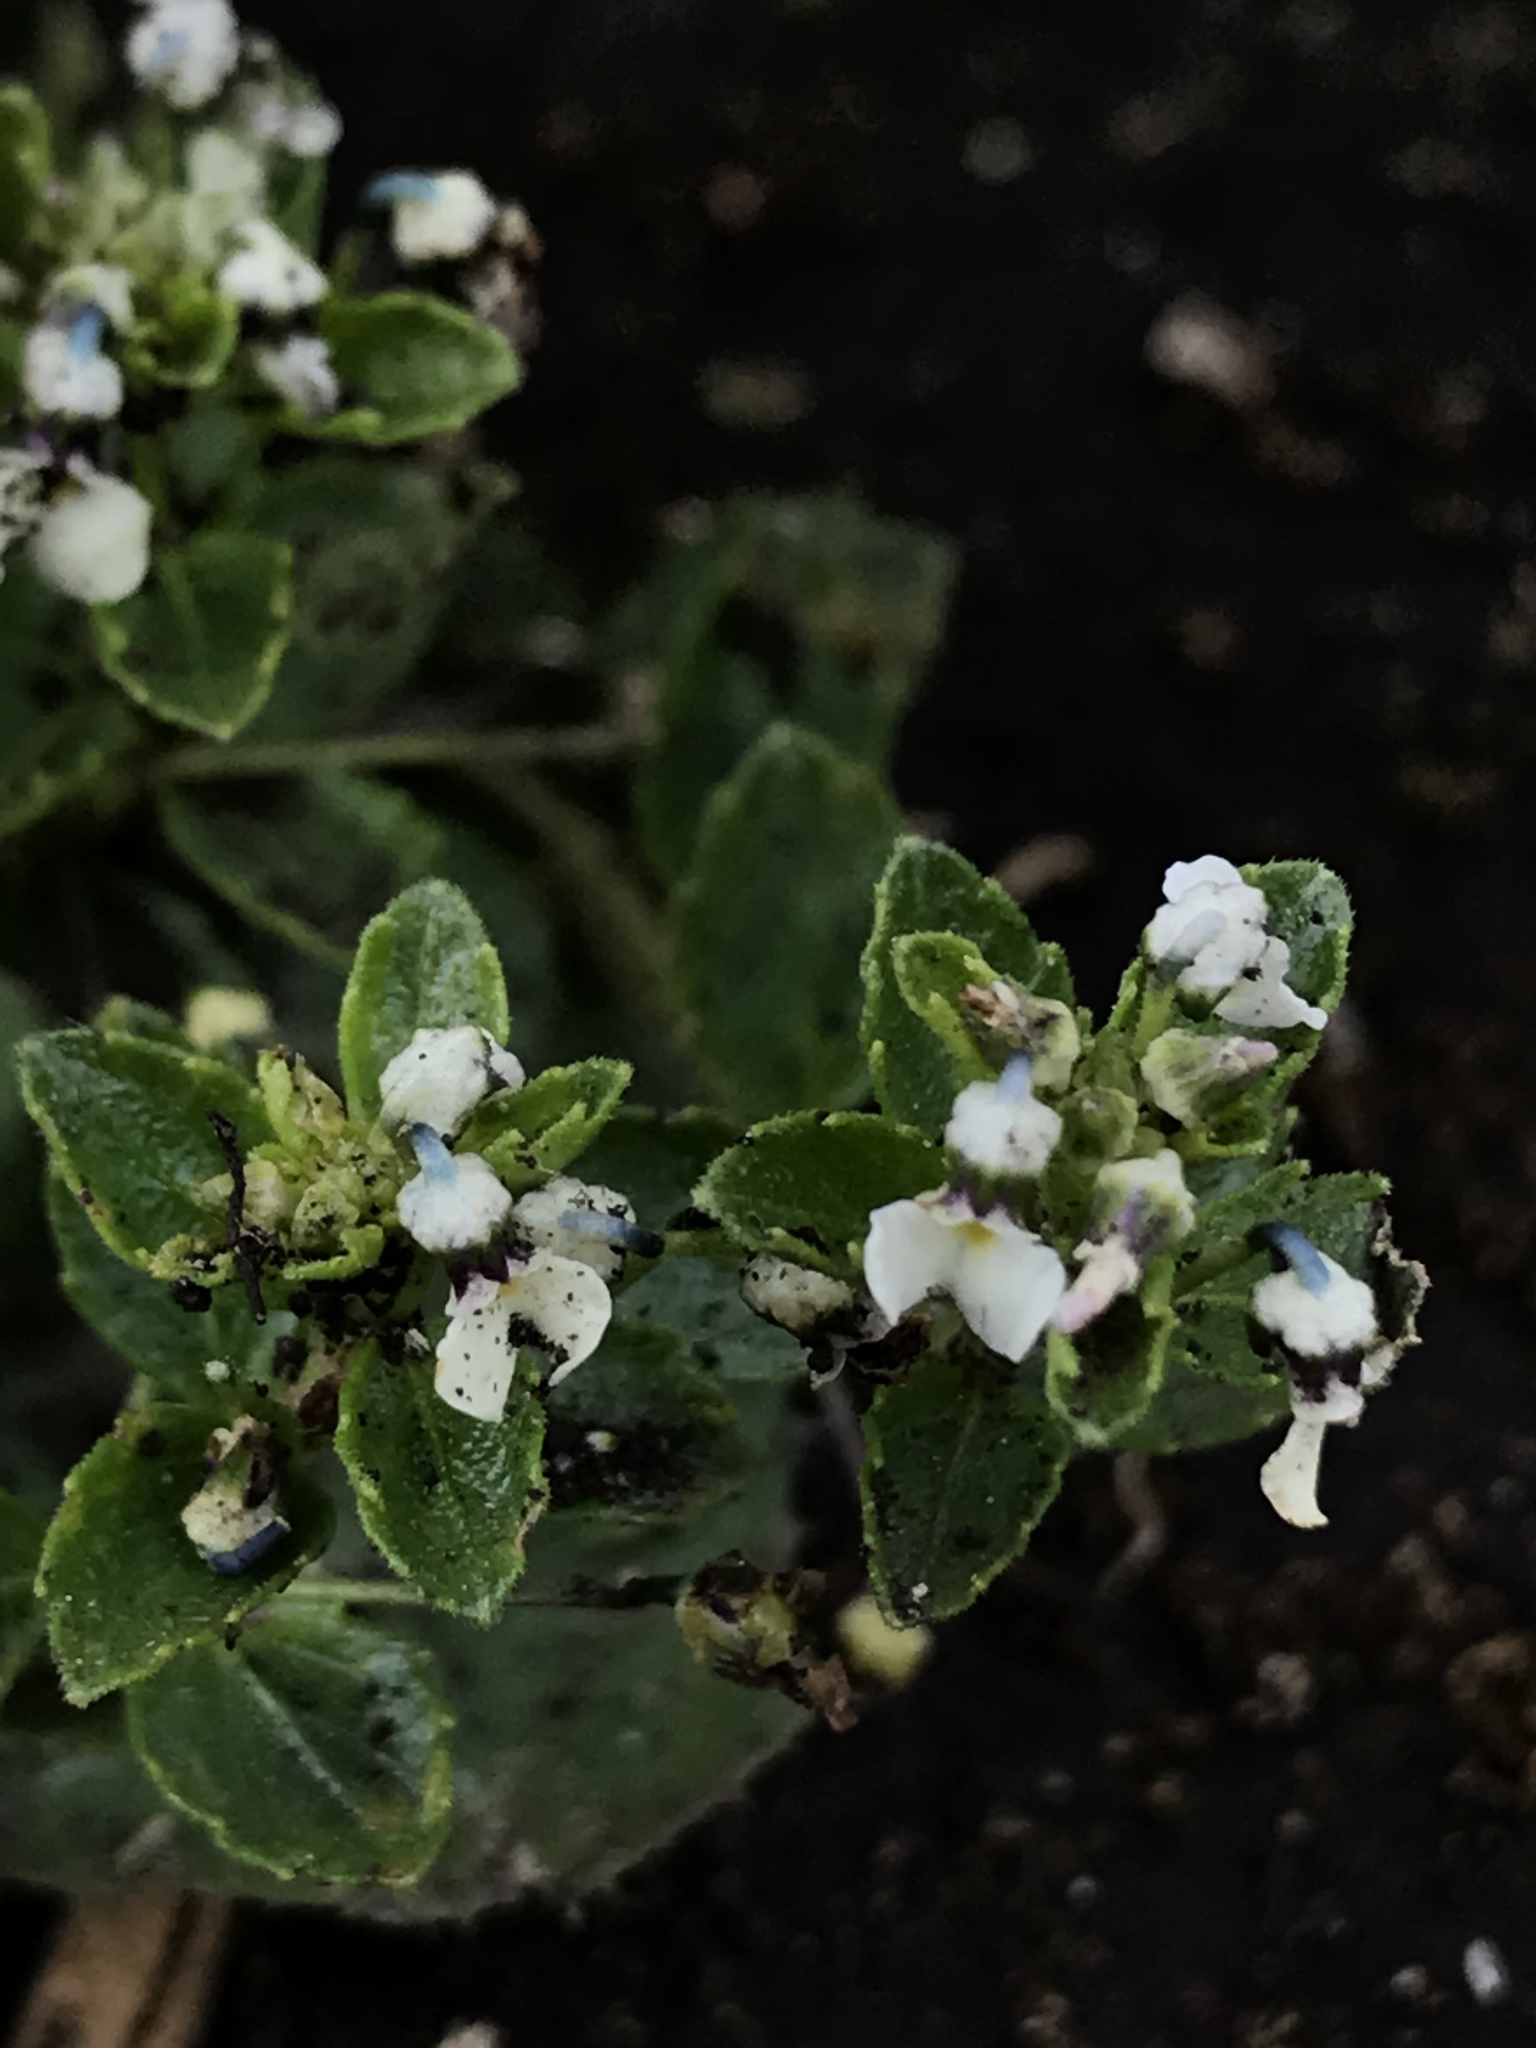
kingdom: Plantae
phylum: Tracheophyta
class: Magnoliopsida
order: Malpighiales
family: Violaceae
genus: Pombalia
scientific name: Pombalia parviflora
